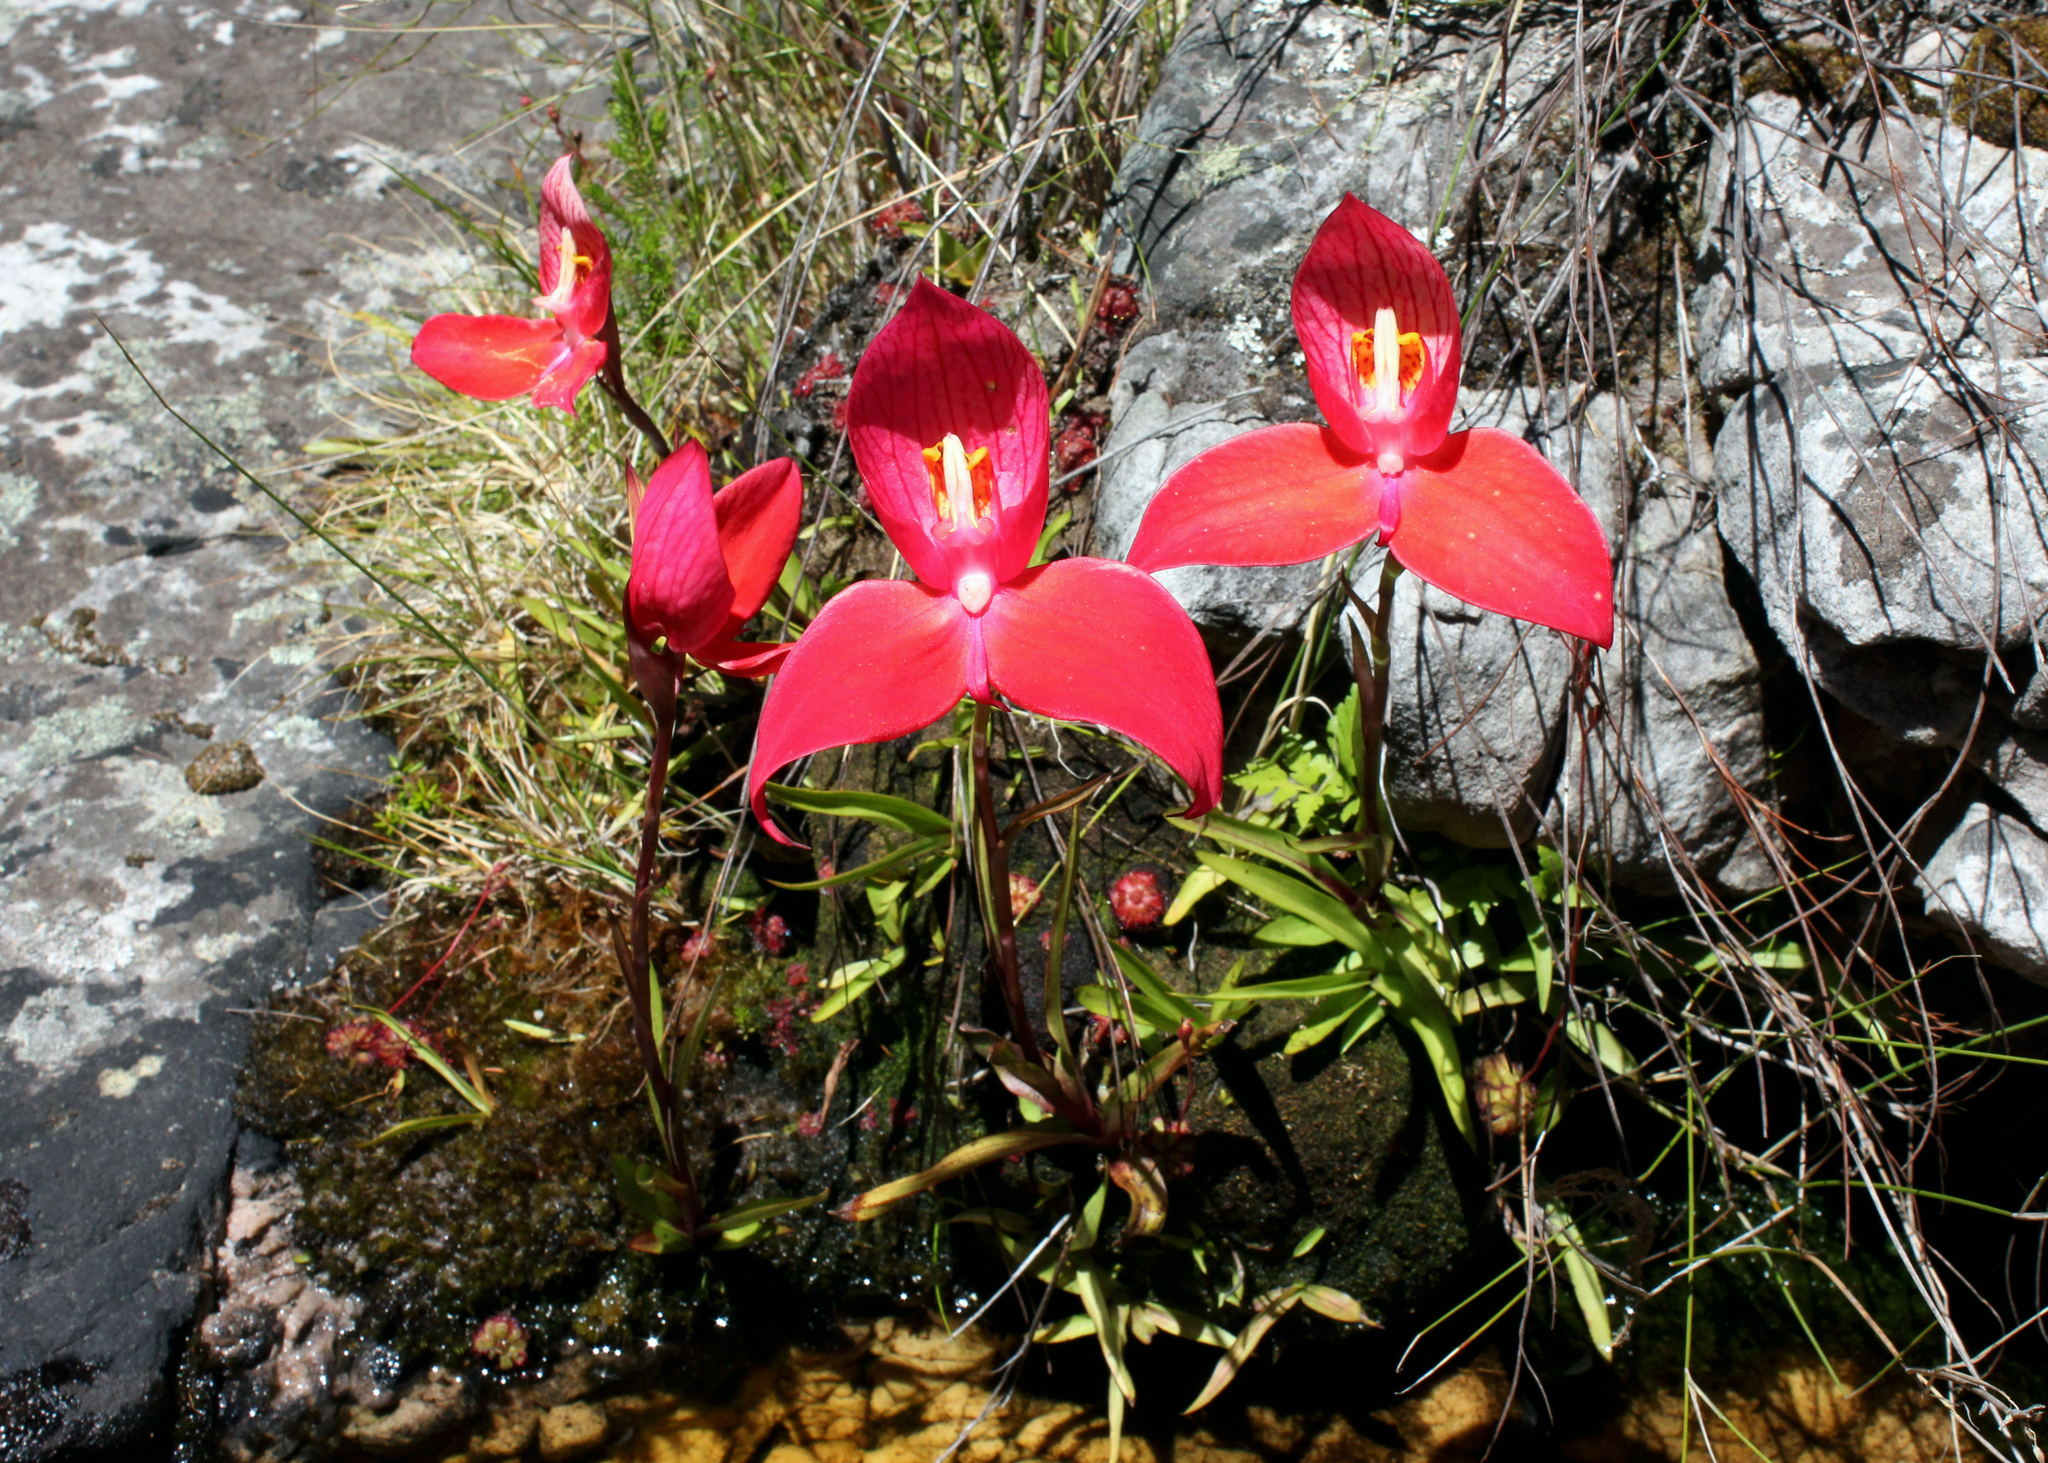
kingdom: Plantae
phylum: Tracheophyta
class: Liliopsida
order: Asparagales
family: Orchidaceae
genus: Disa
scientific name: Disa uniflora
